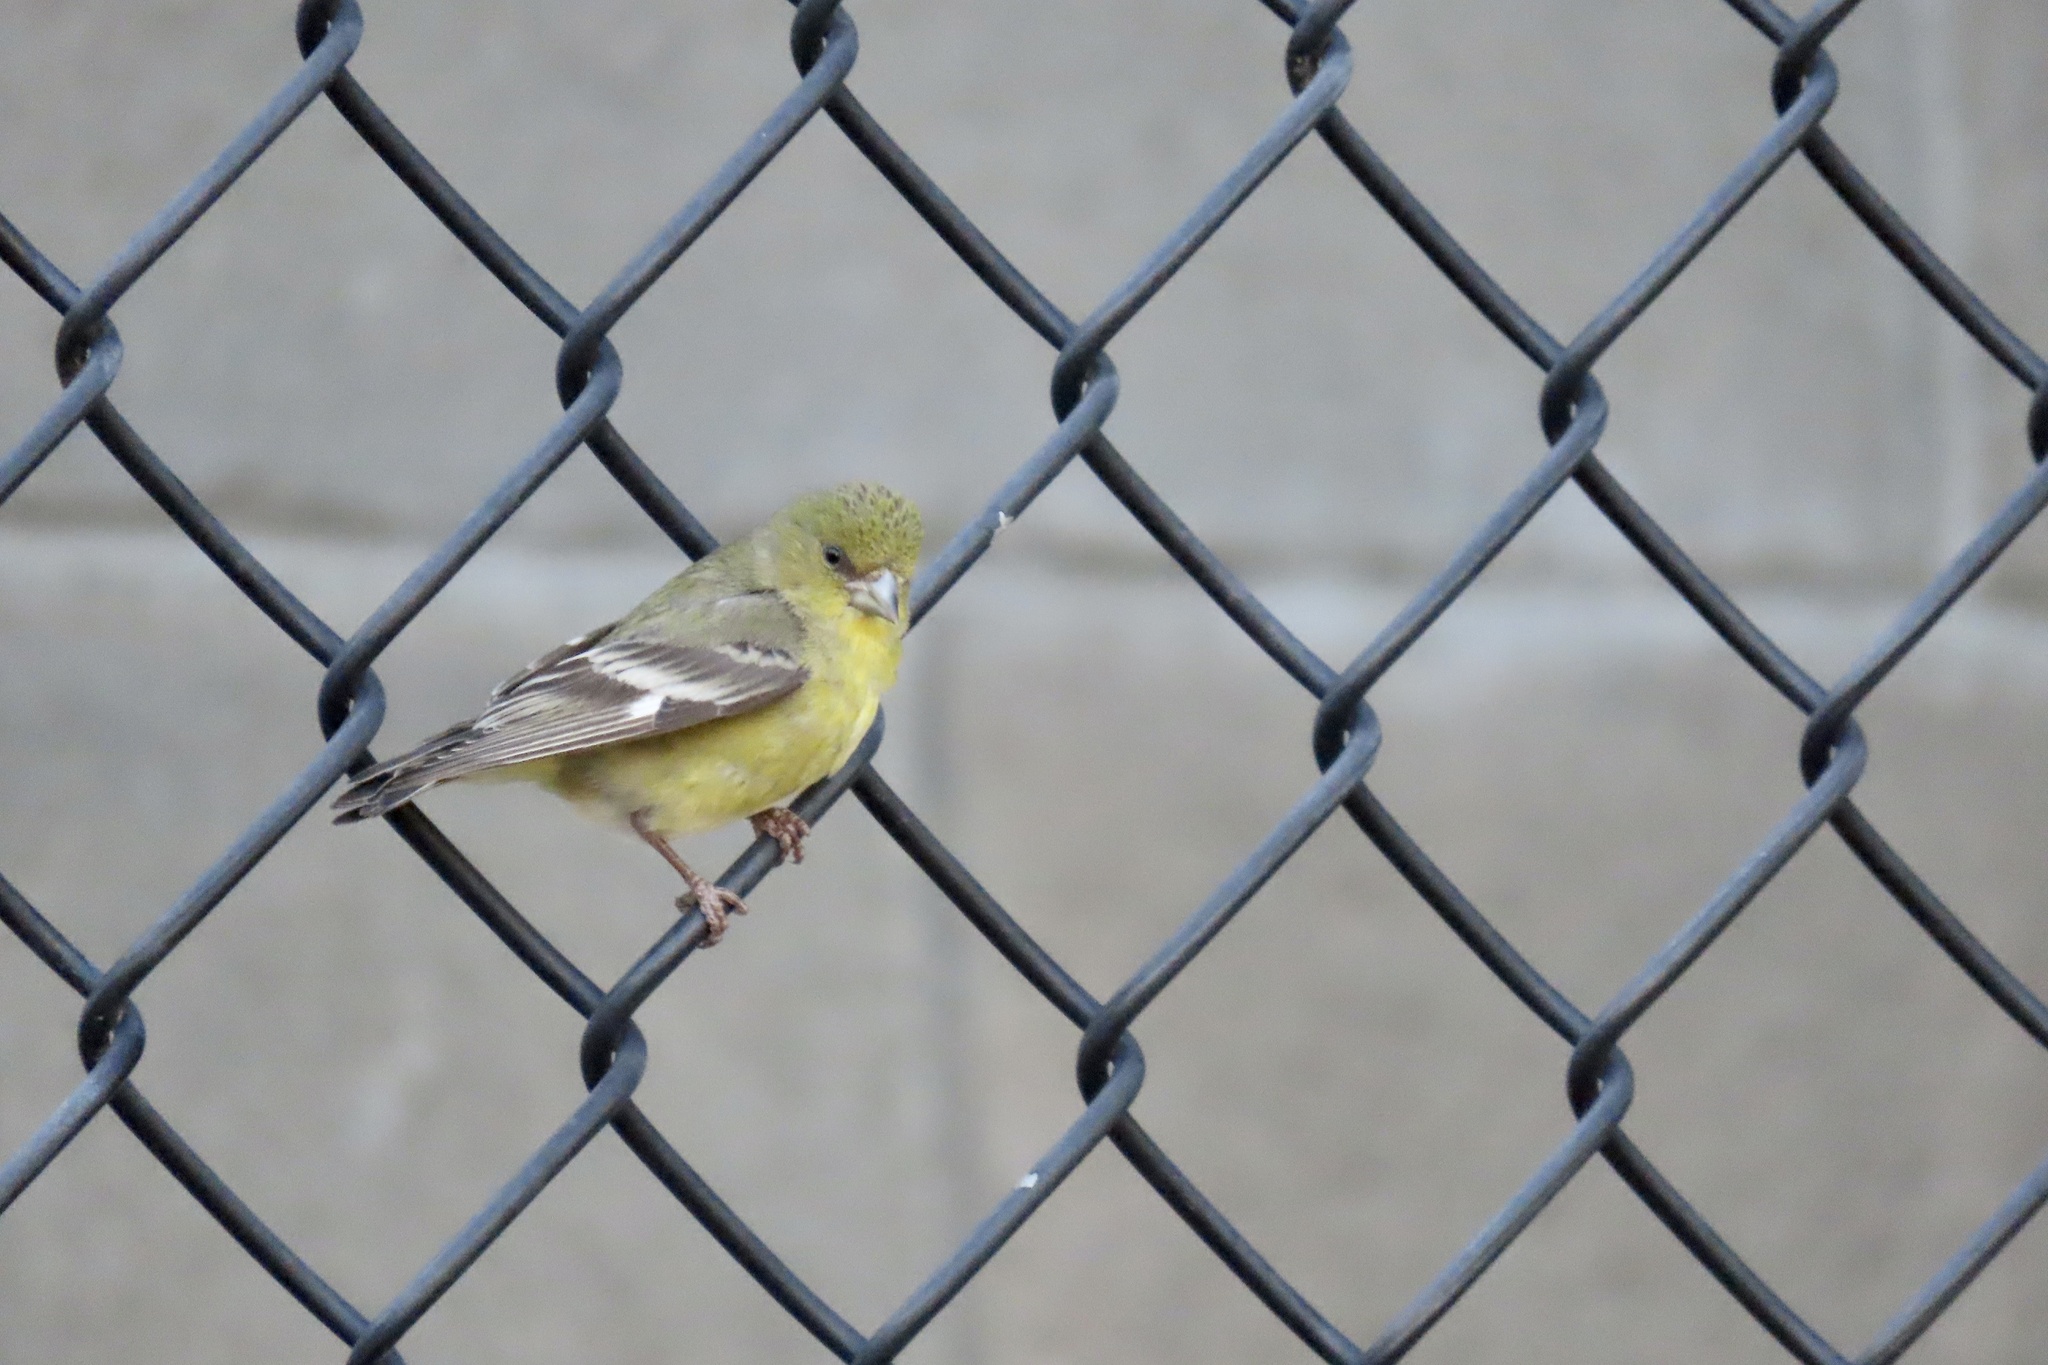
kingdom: Animalia
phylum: Chordata
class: Aves
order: Passeriformes
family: Fringillidae
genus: Spinus
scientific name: Spinus psaltria
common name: Lesser goldfinch
